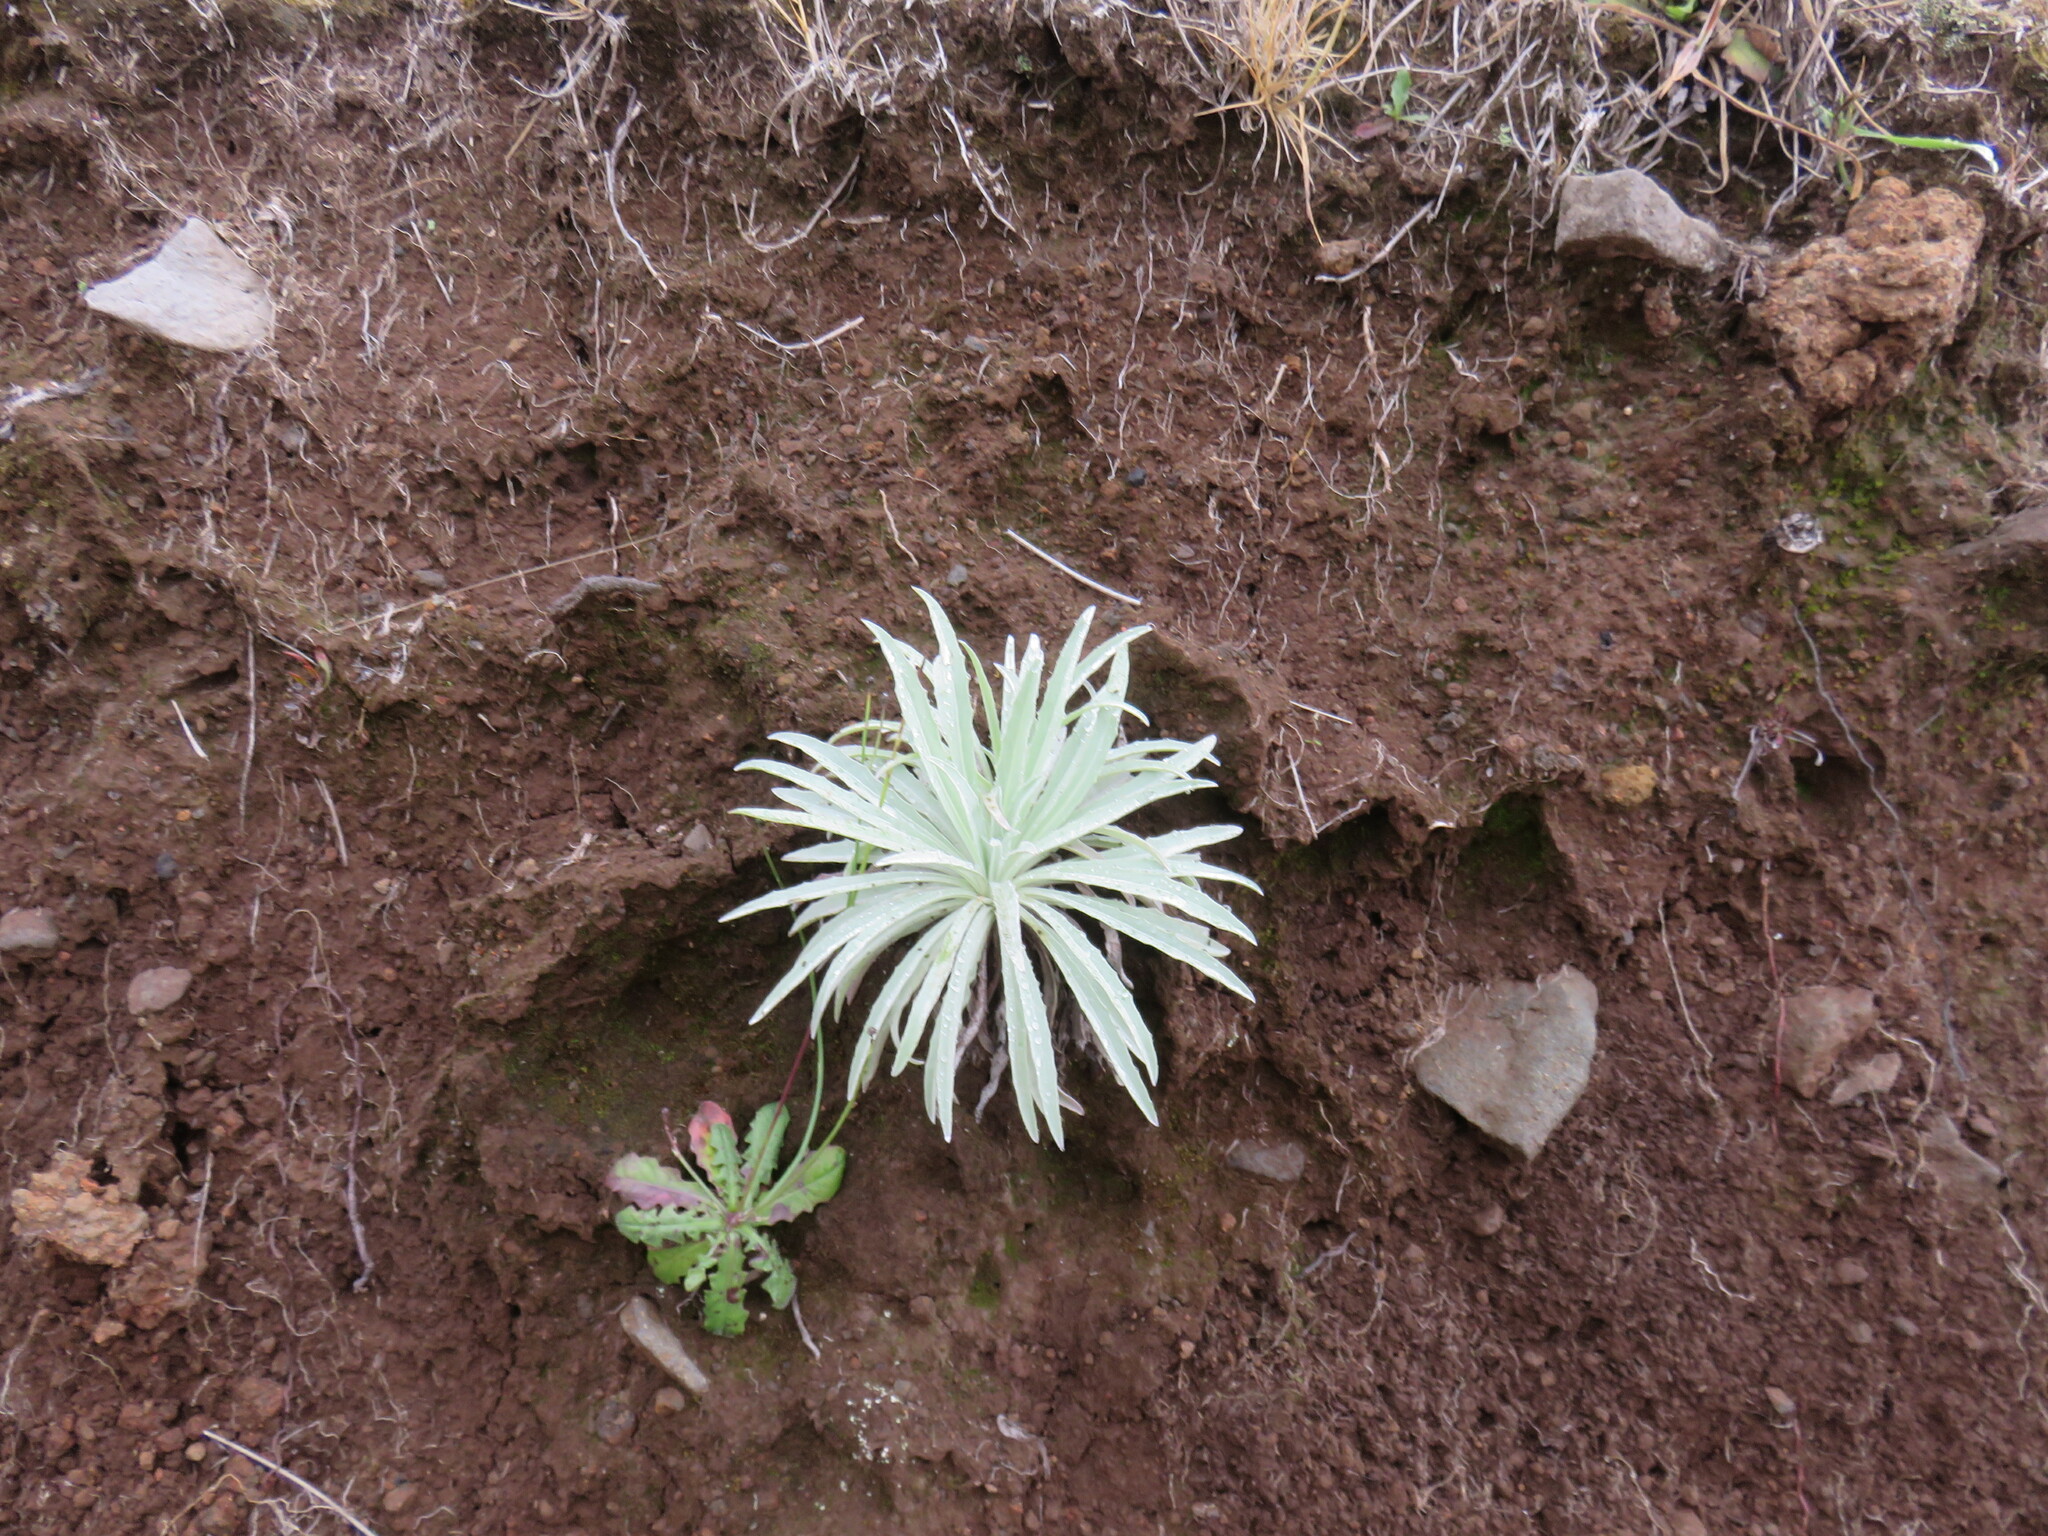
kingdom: Plantae
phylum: Tracheophyta
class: Magnoliopsida
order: Asterales
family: Asteraceae
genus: Andryala
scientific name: Andryala glandulosa
